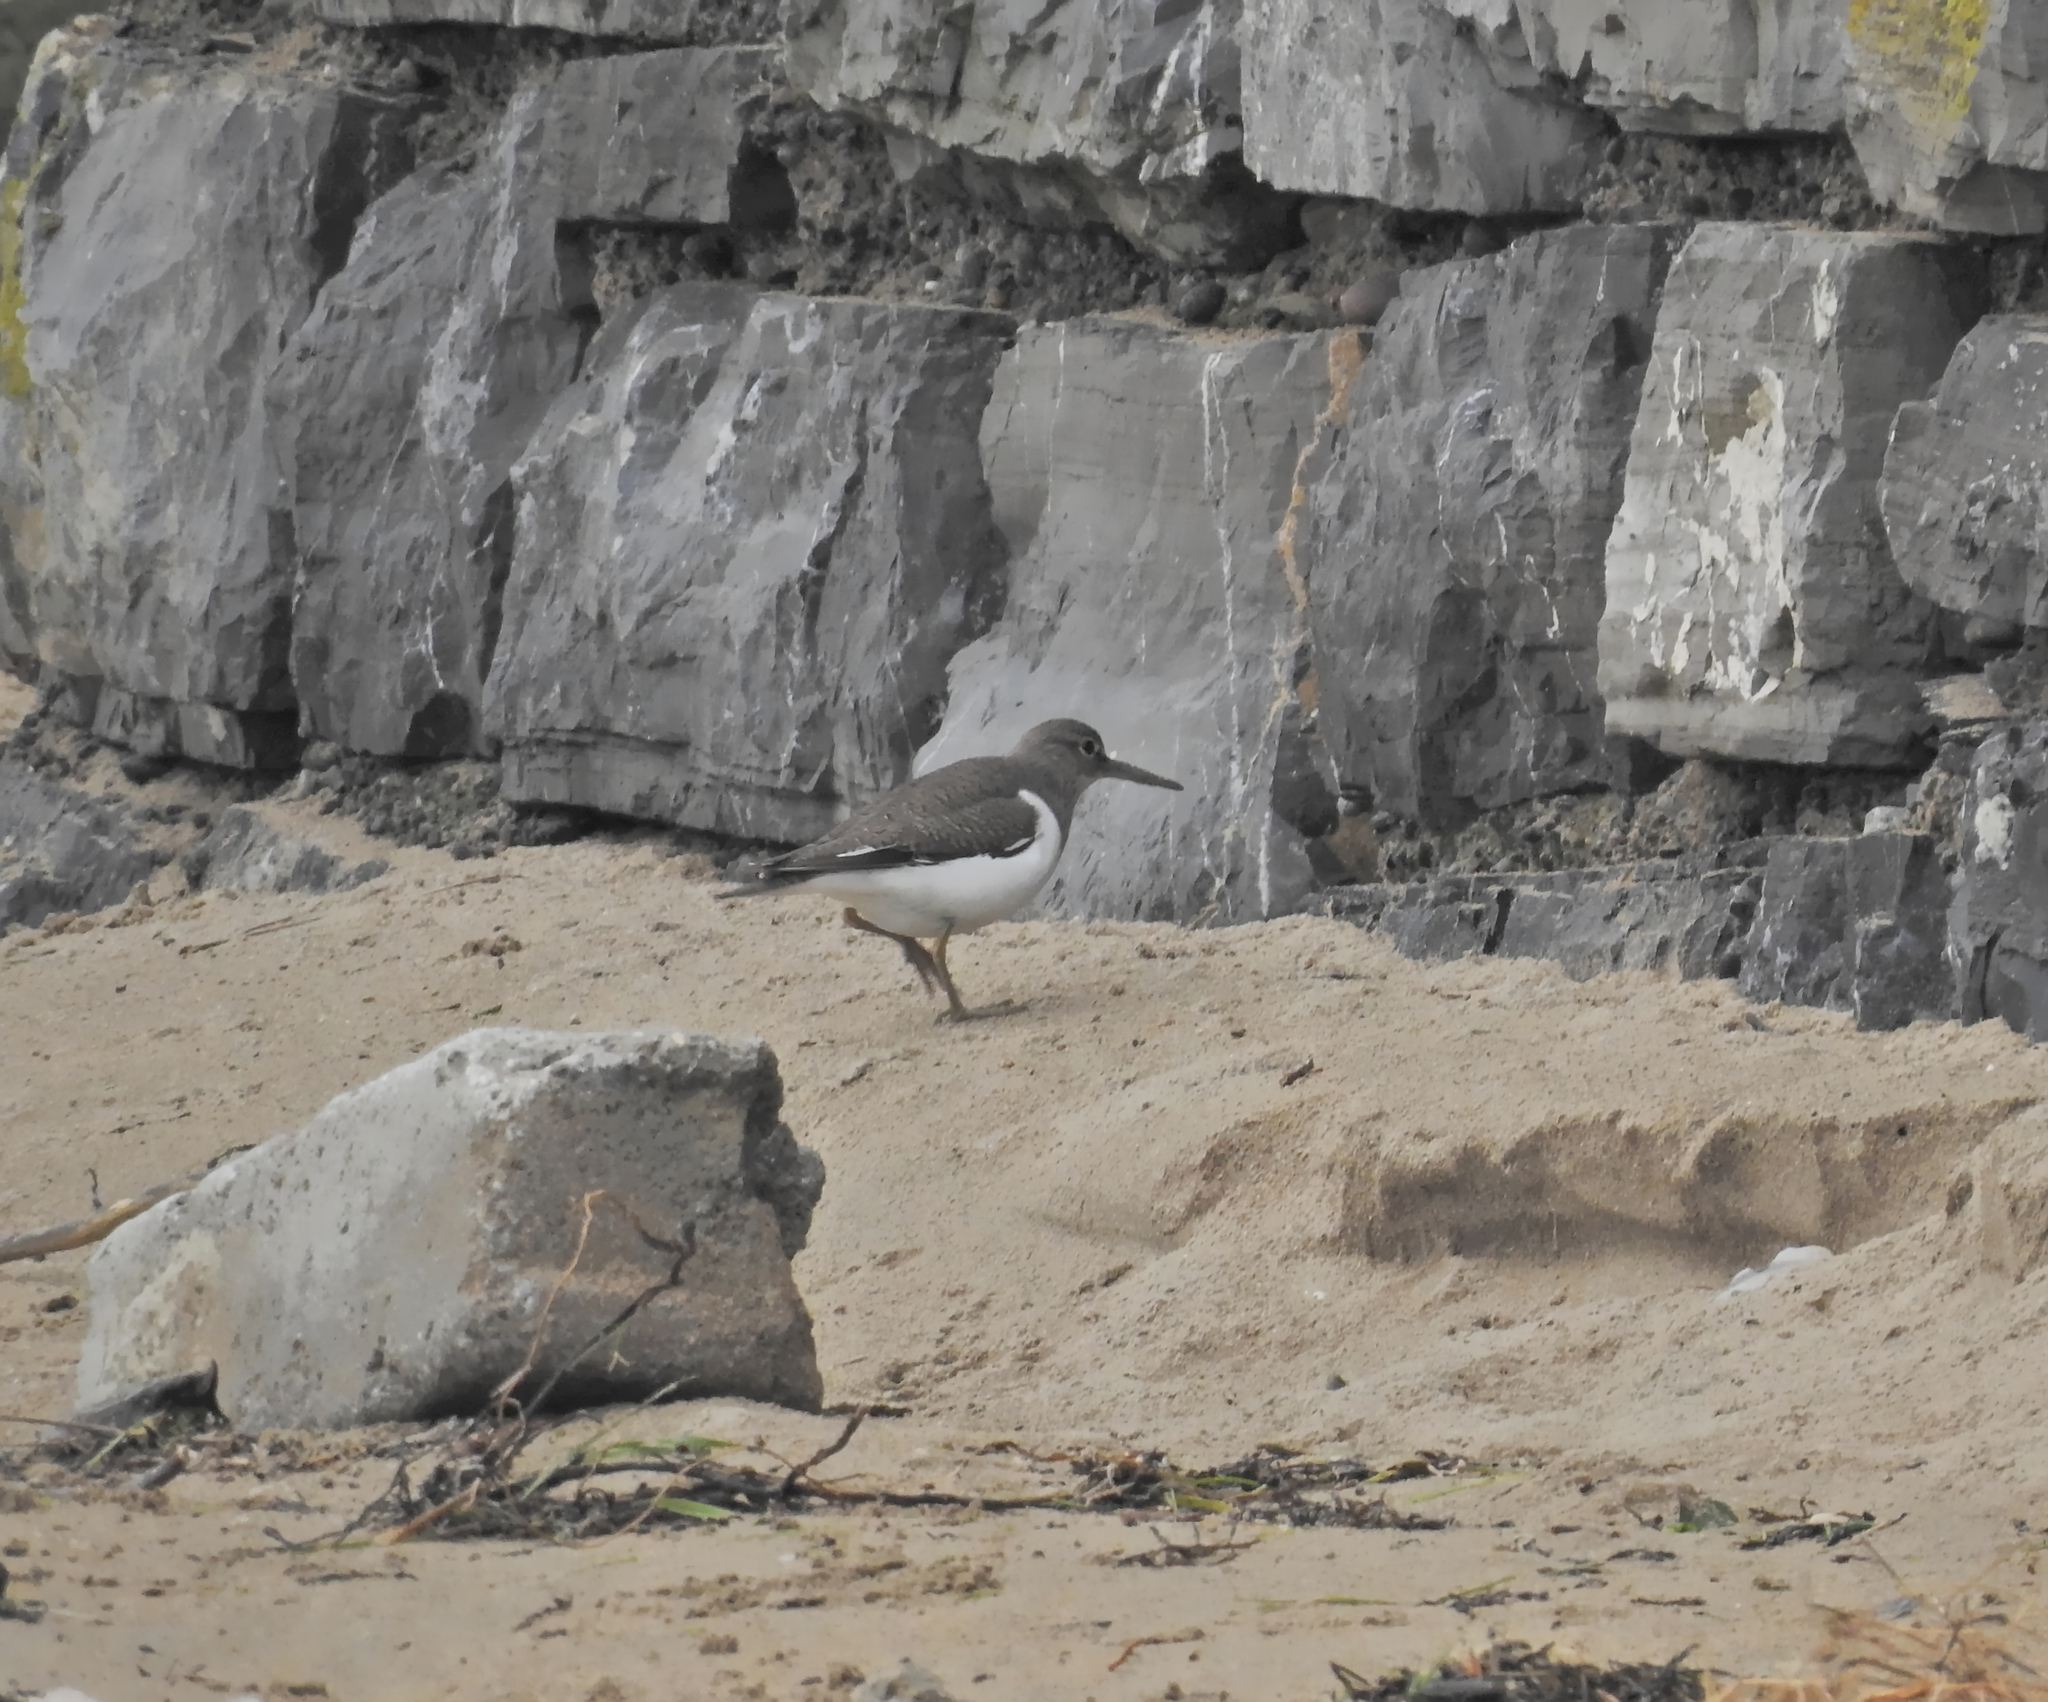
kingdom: Animalia
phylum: Chordata
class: Aves
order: Charadriiformes
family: Scolopacidae
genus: Actitis
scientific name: Actitis hypoleucos
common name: Common sandpiper
